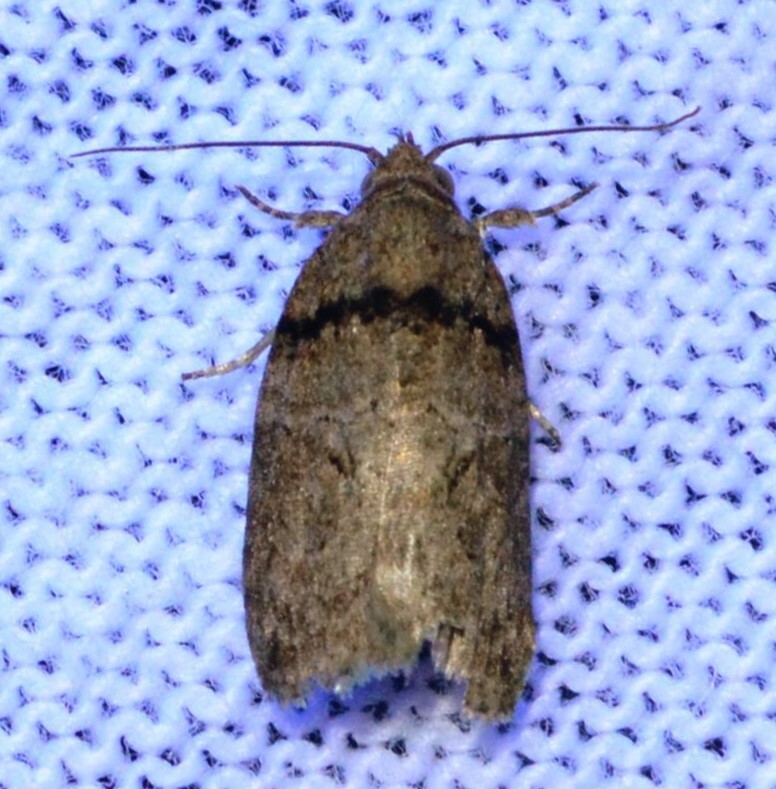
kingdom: Animalia
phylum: Arthropoda
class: Insecta
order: Lepidoptera
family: Nolidae
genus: Garella
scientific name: Garella nilotica
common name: Black-olive caterpillar moth
